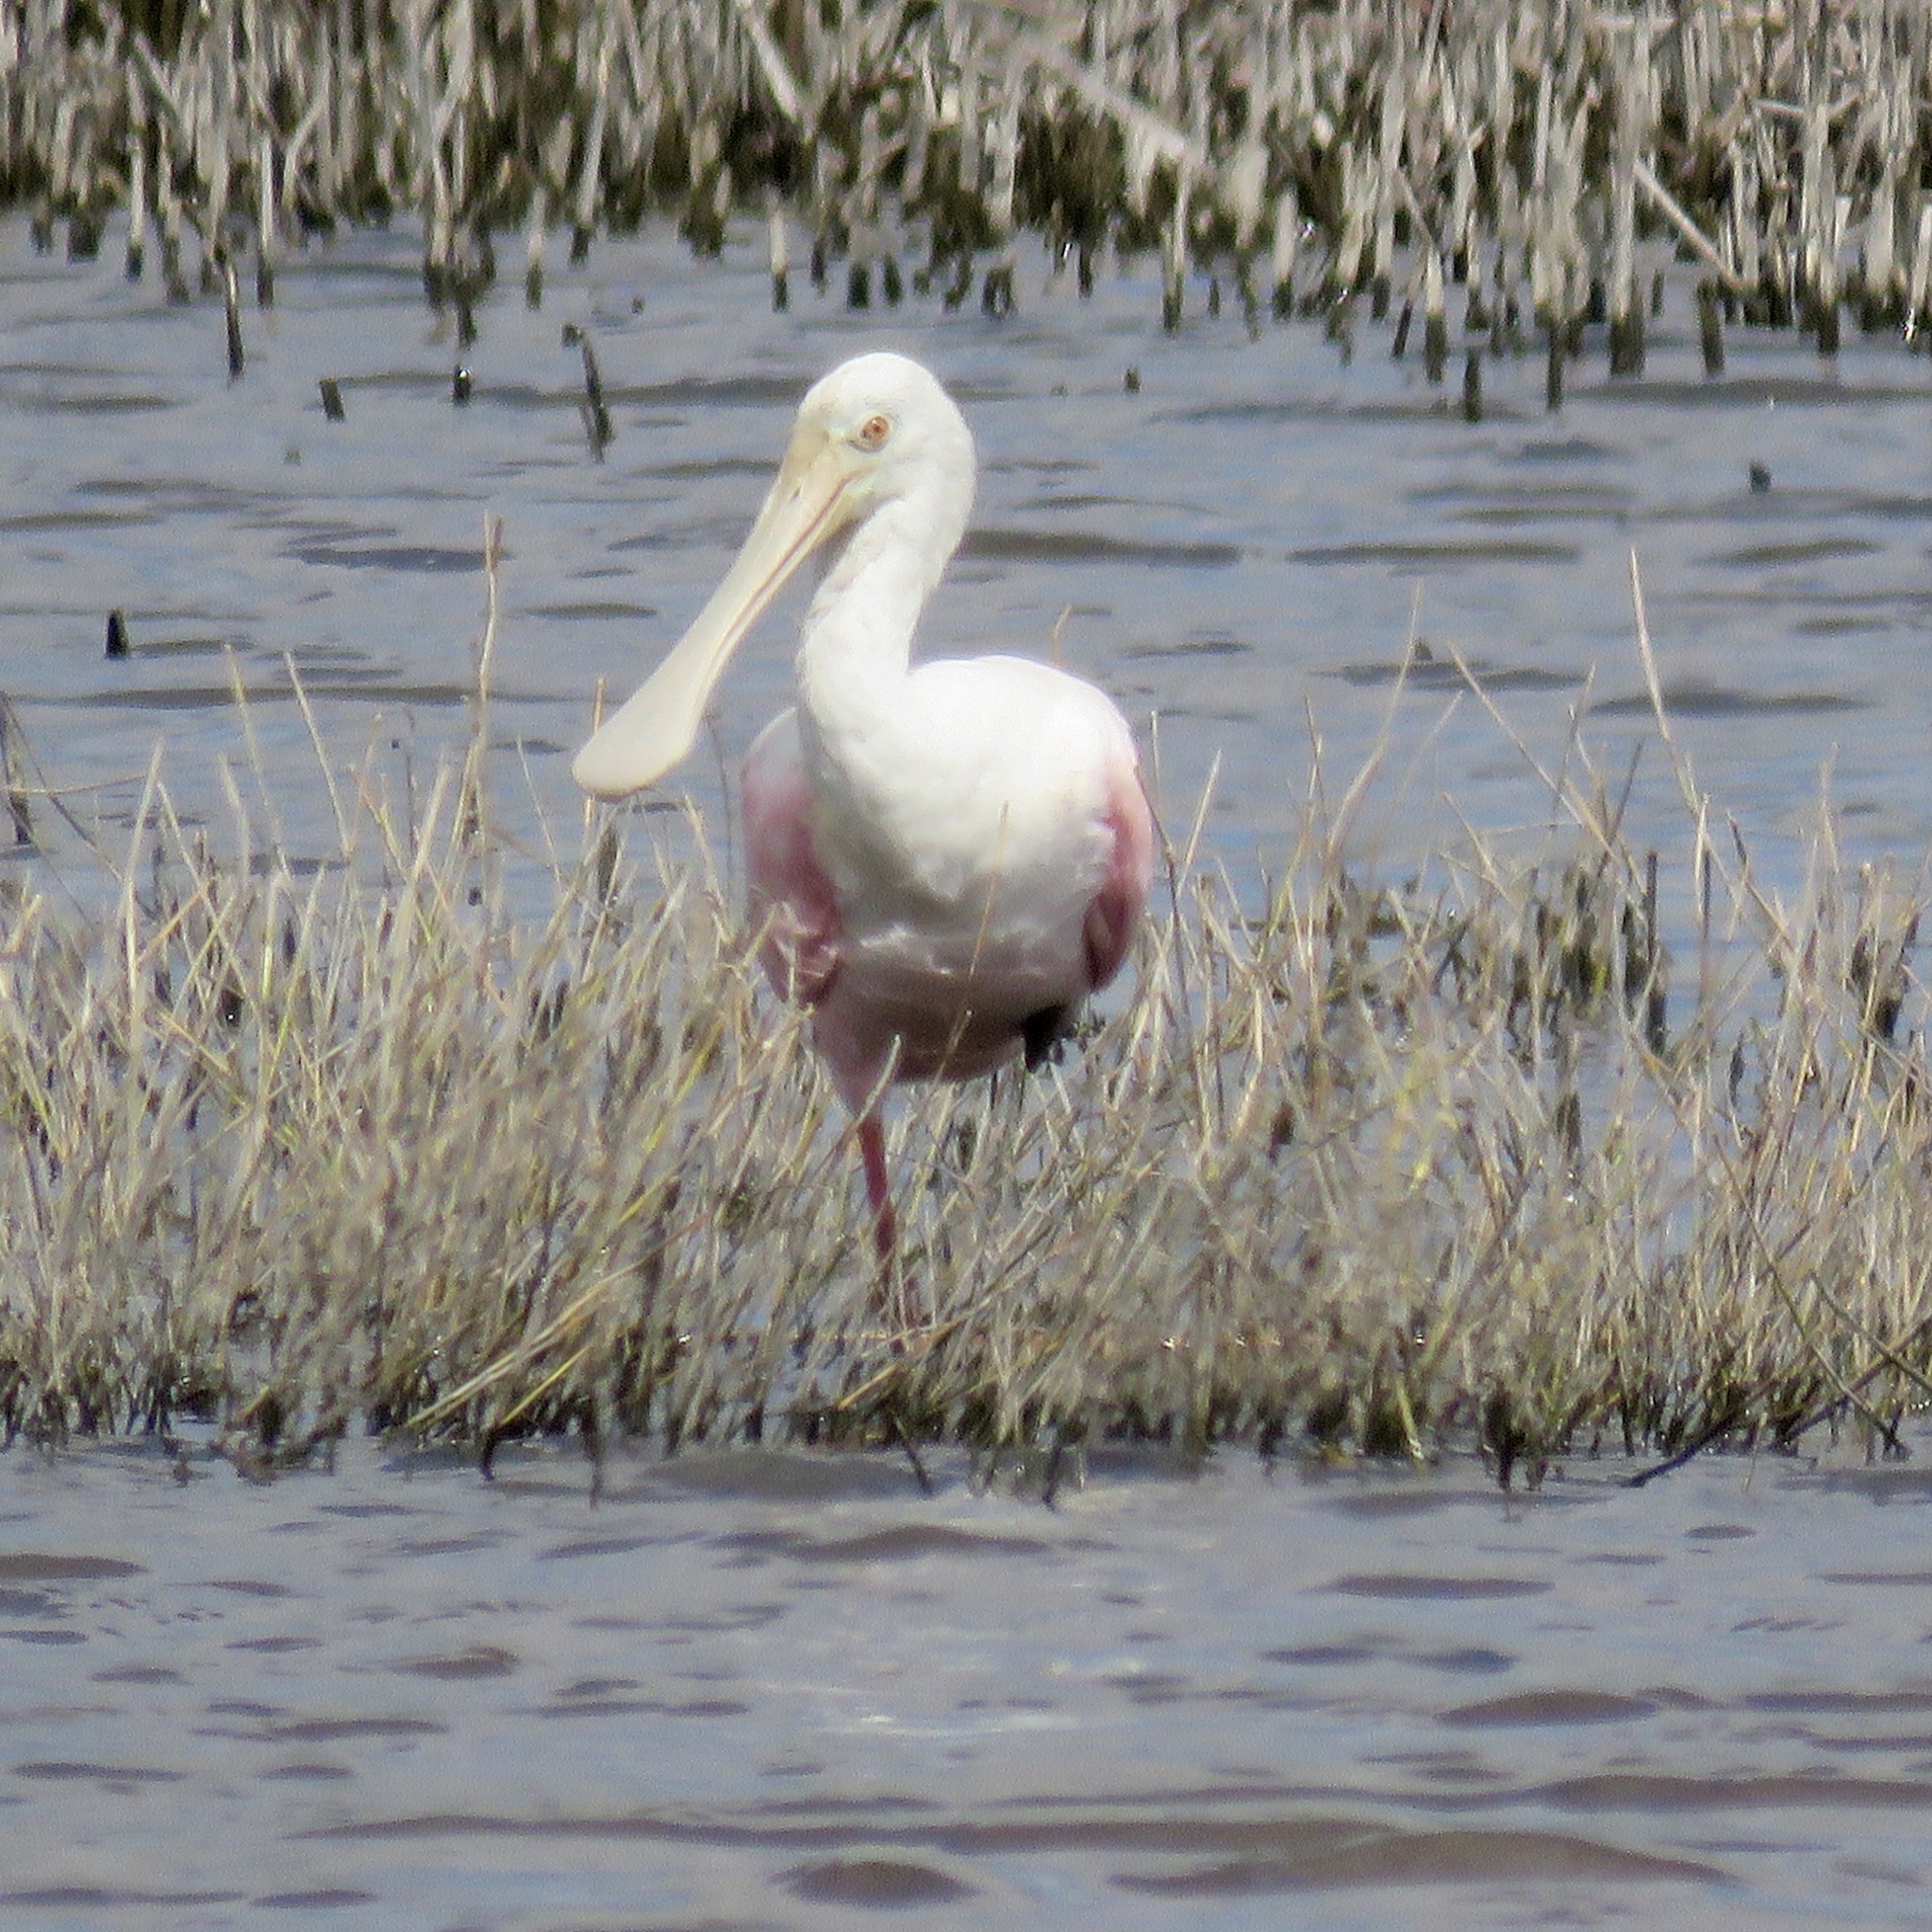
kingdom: Animalia
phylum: Chordata
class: Aves
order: Pelecaniformes
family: Threskiornithidae
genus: Platalea
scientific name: Platalea ajaja
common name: Roseate spoonbill
